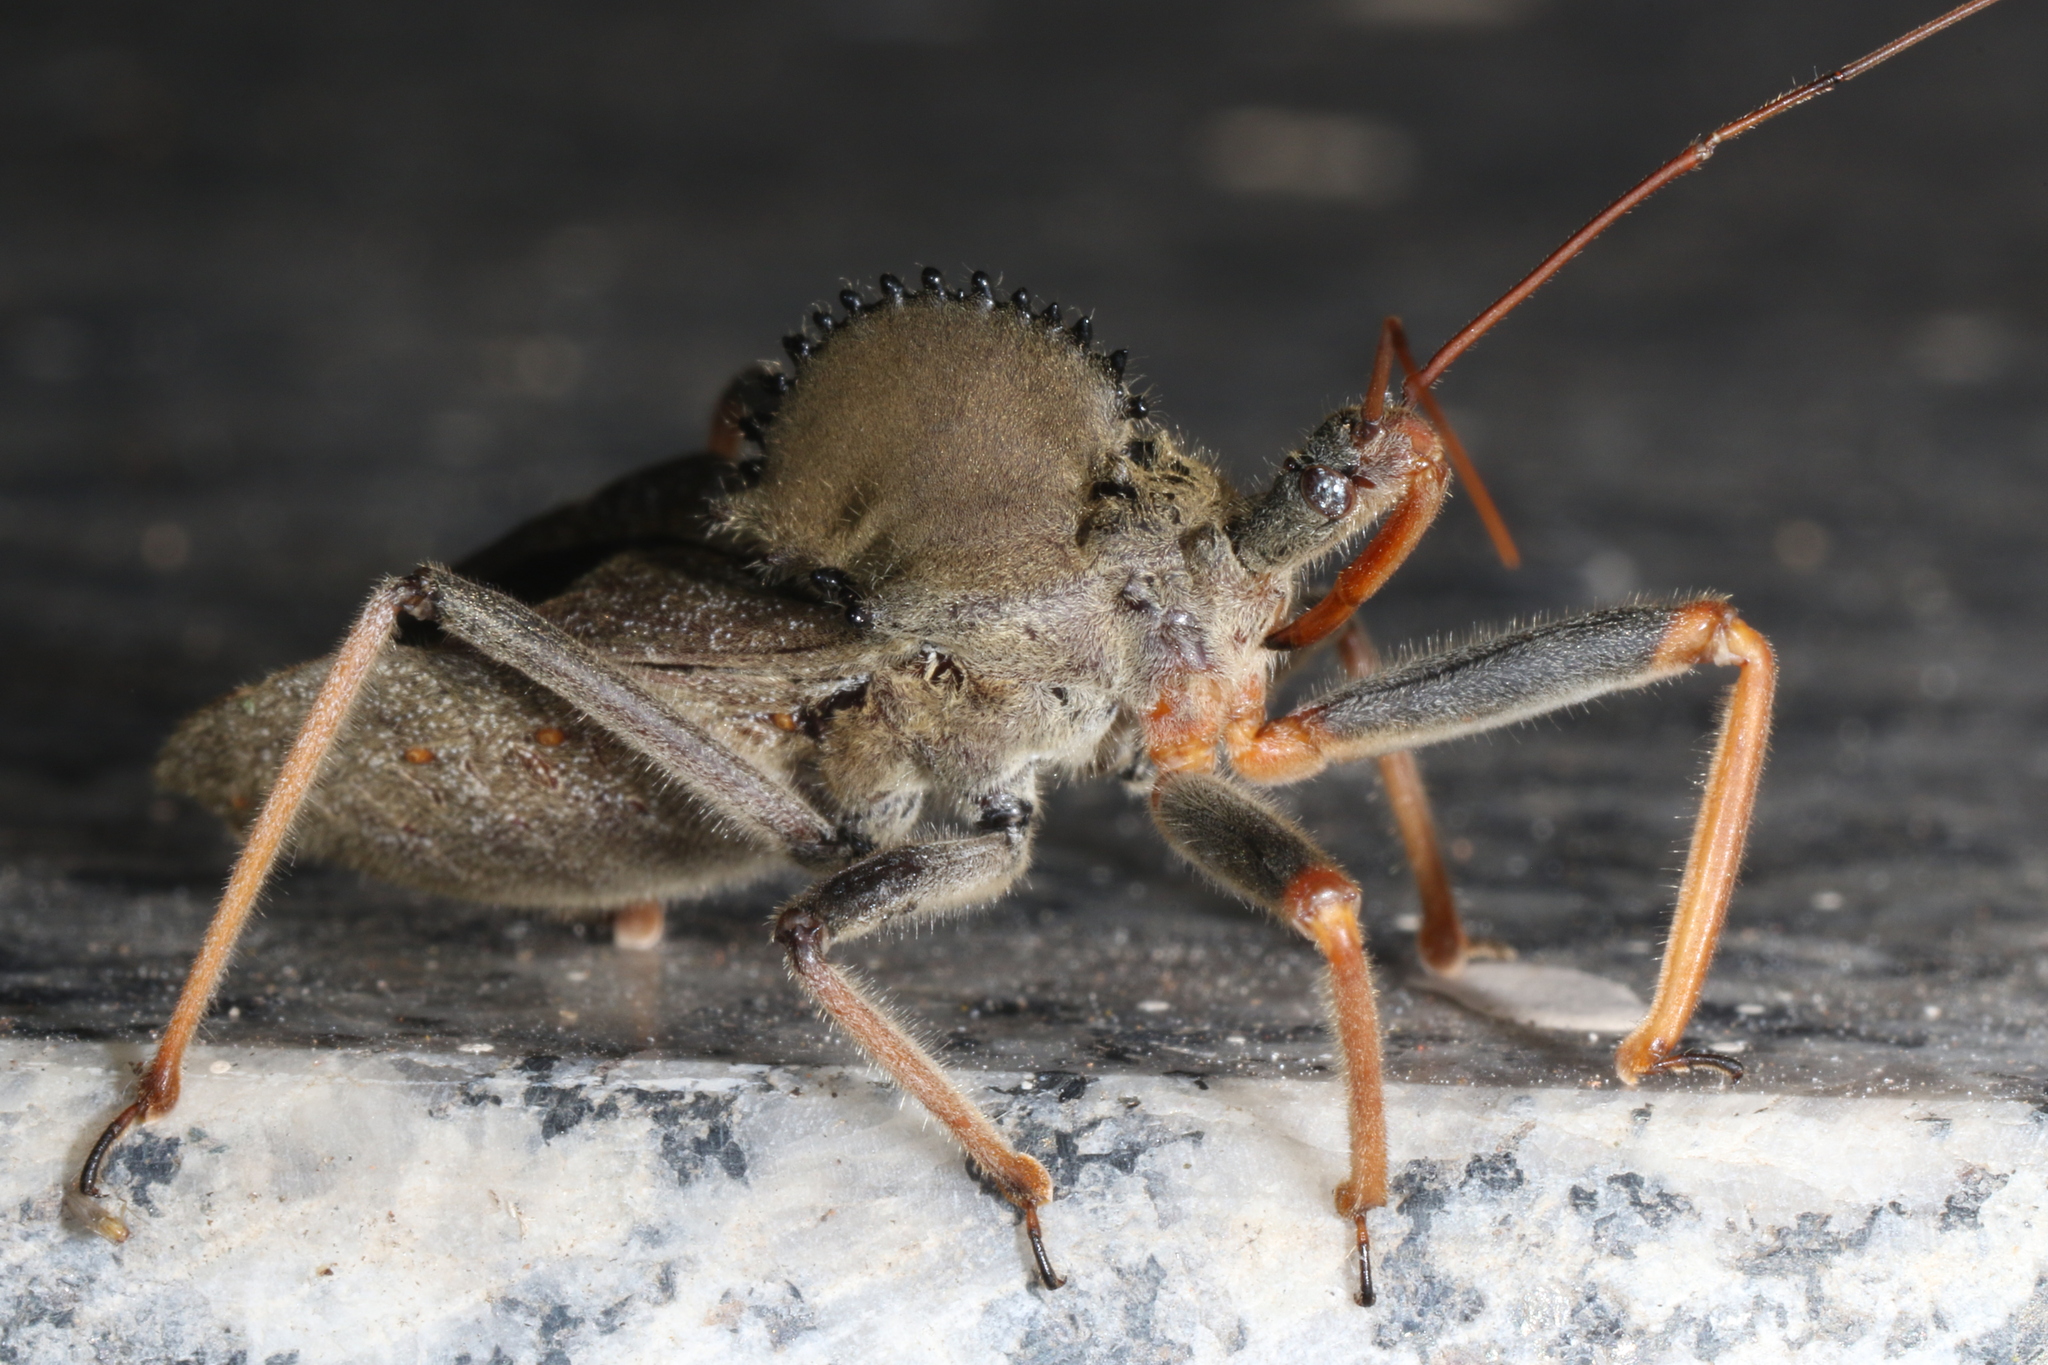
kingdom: Animalia
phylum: Arthropoda
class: Insecta
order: Hemiptera
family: Reduviidae
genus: Arilus
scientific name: Arilus carinatus
